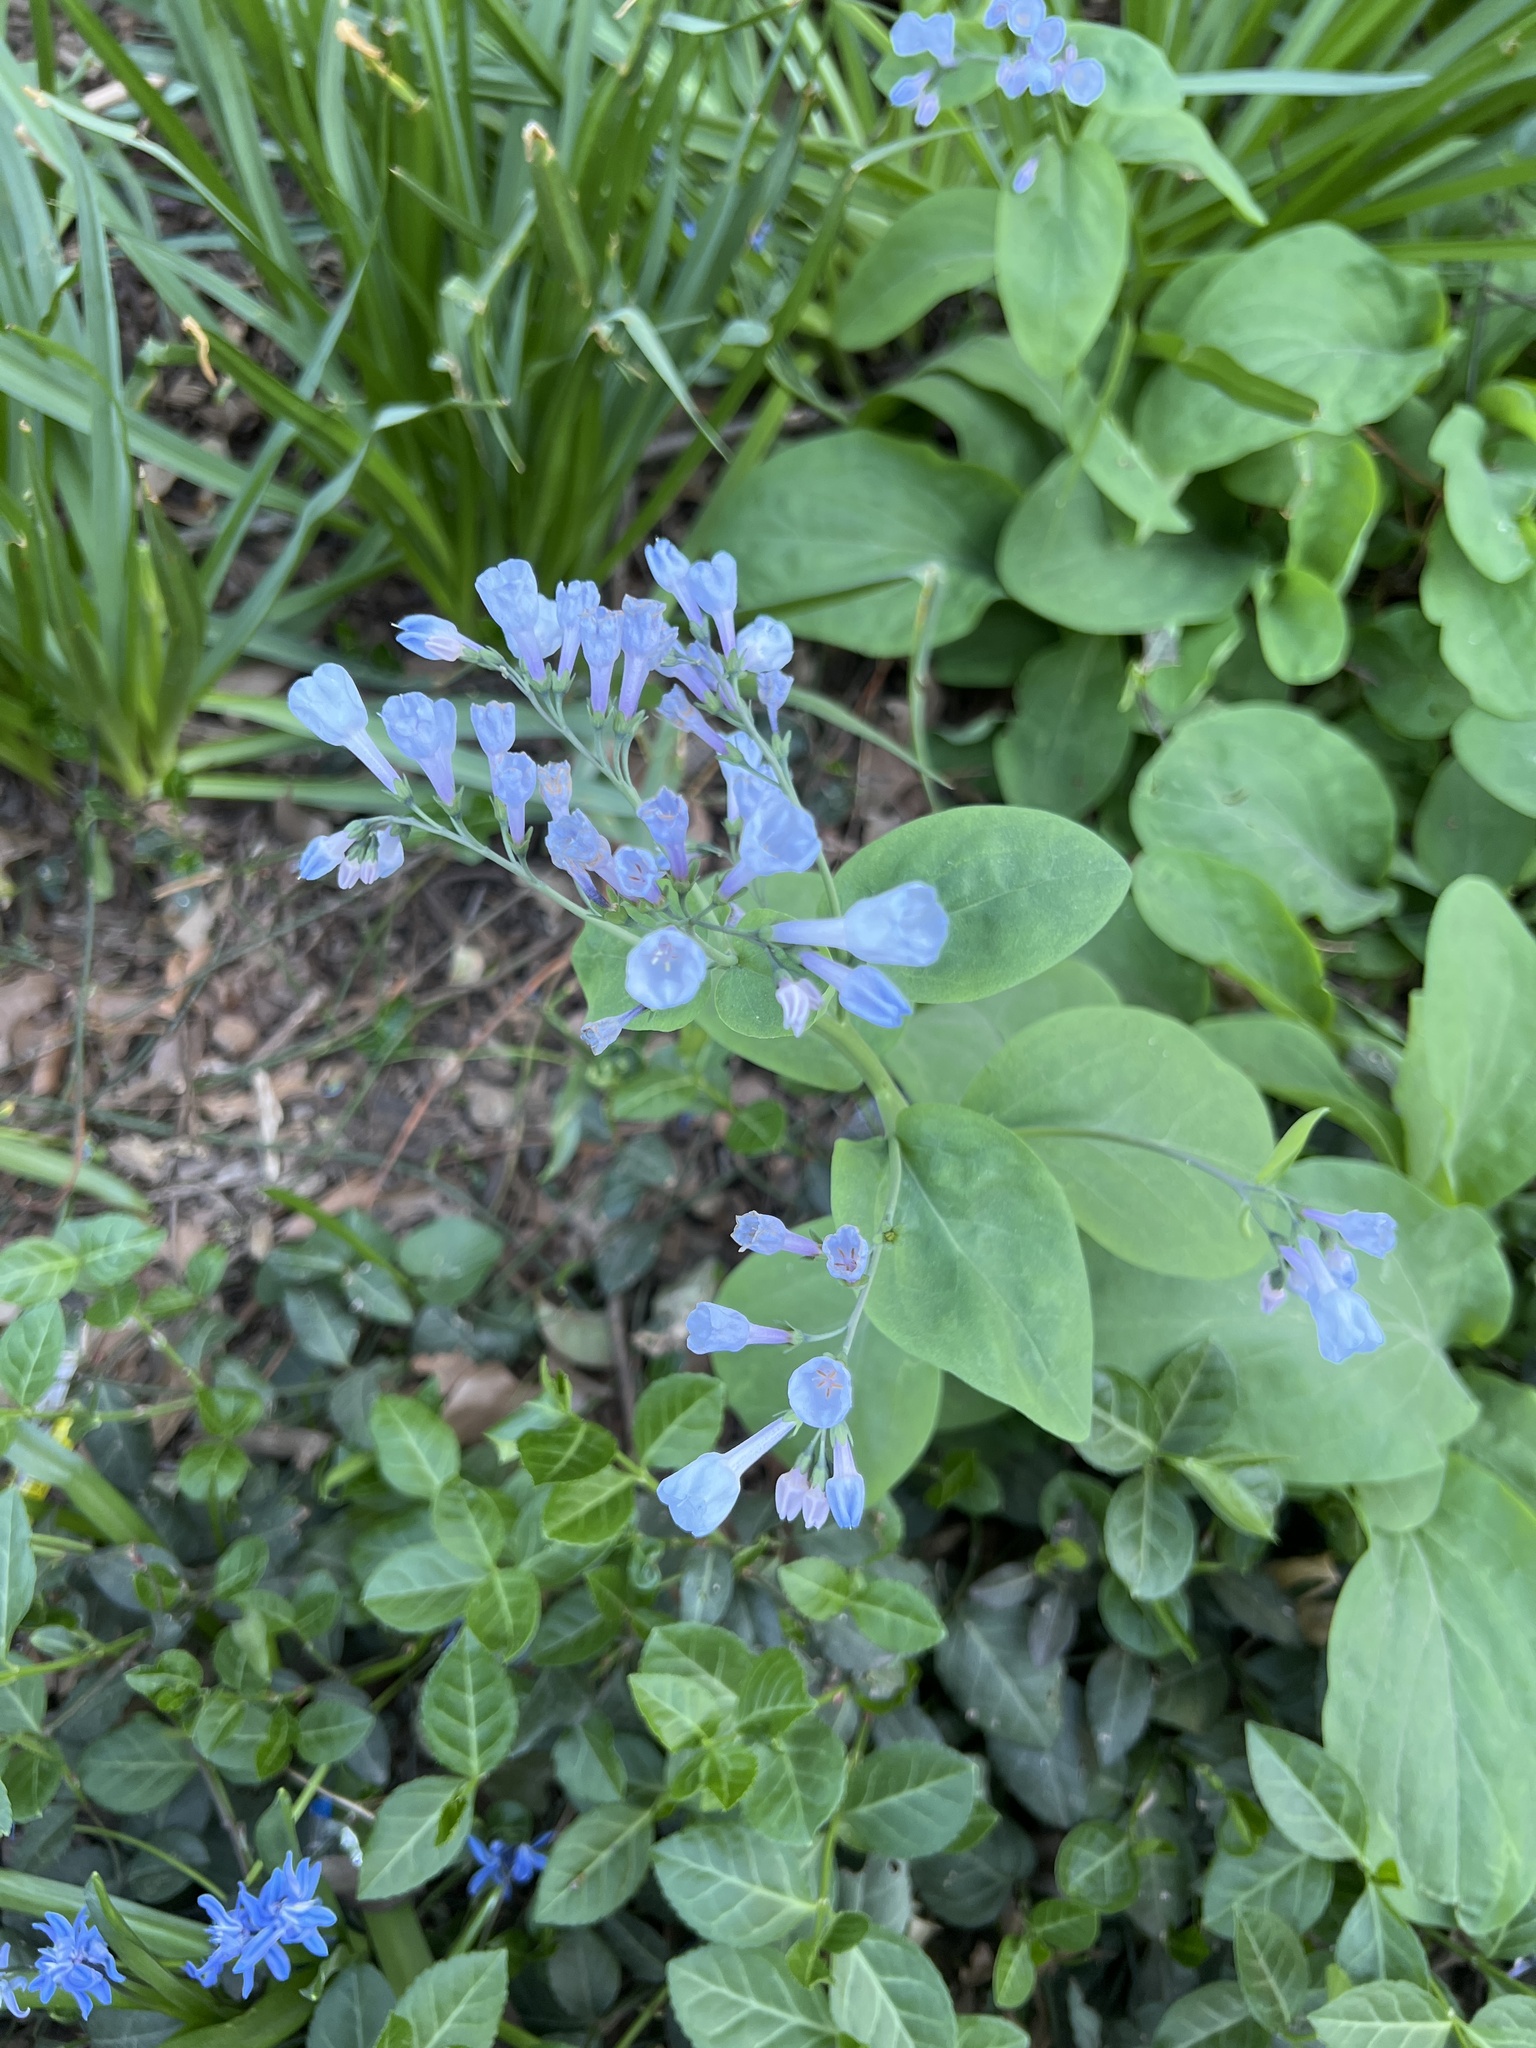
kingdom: Plantae
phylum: Tracheophyta
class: Magnoliopsida
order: Boraginales
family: Boraginaceae
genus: Mertensia
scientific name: Mertensia virginica
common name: Virginia bluebells
